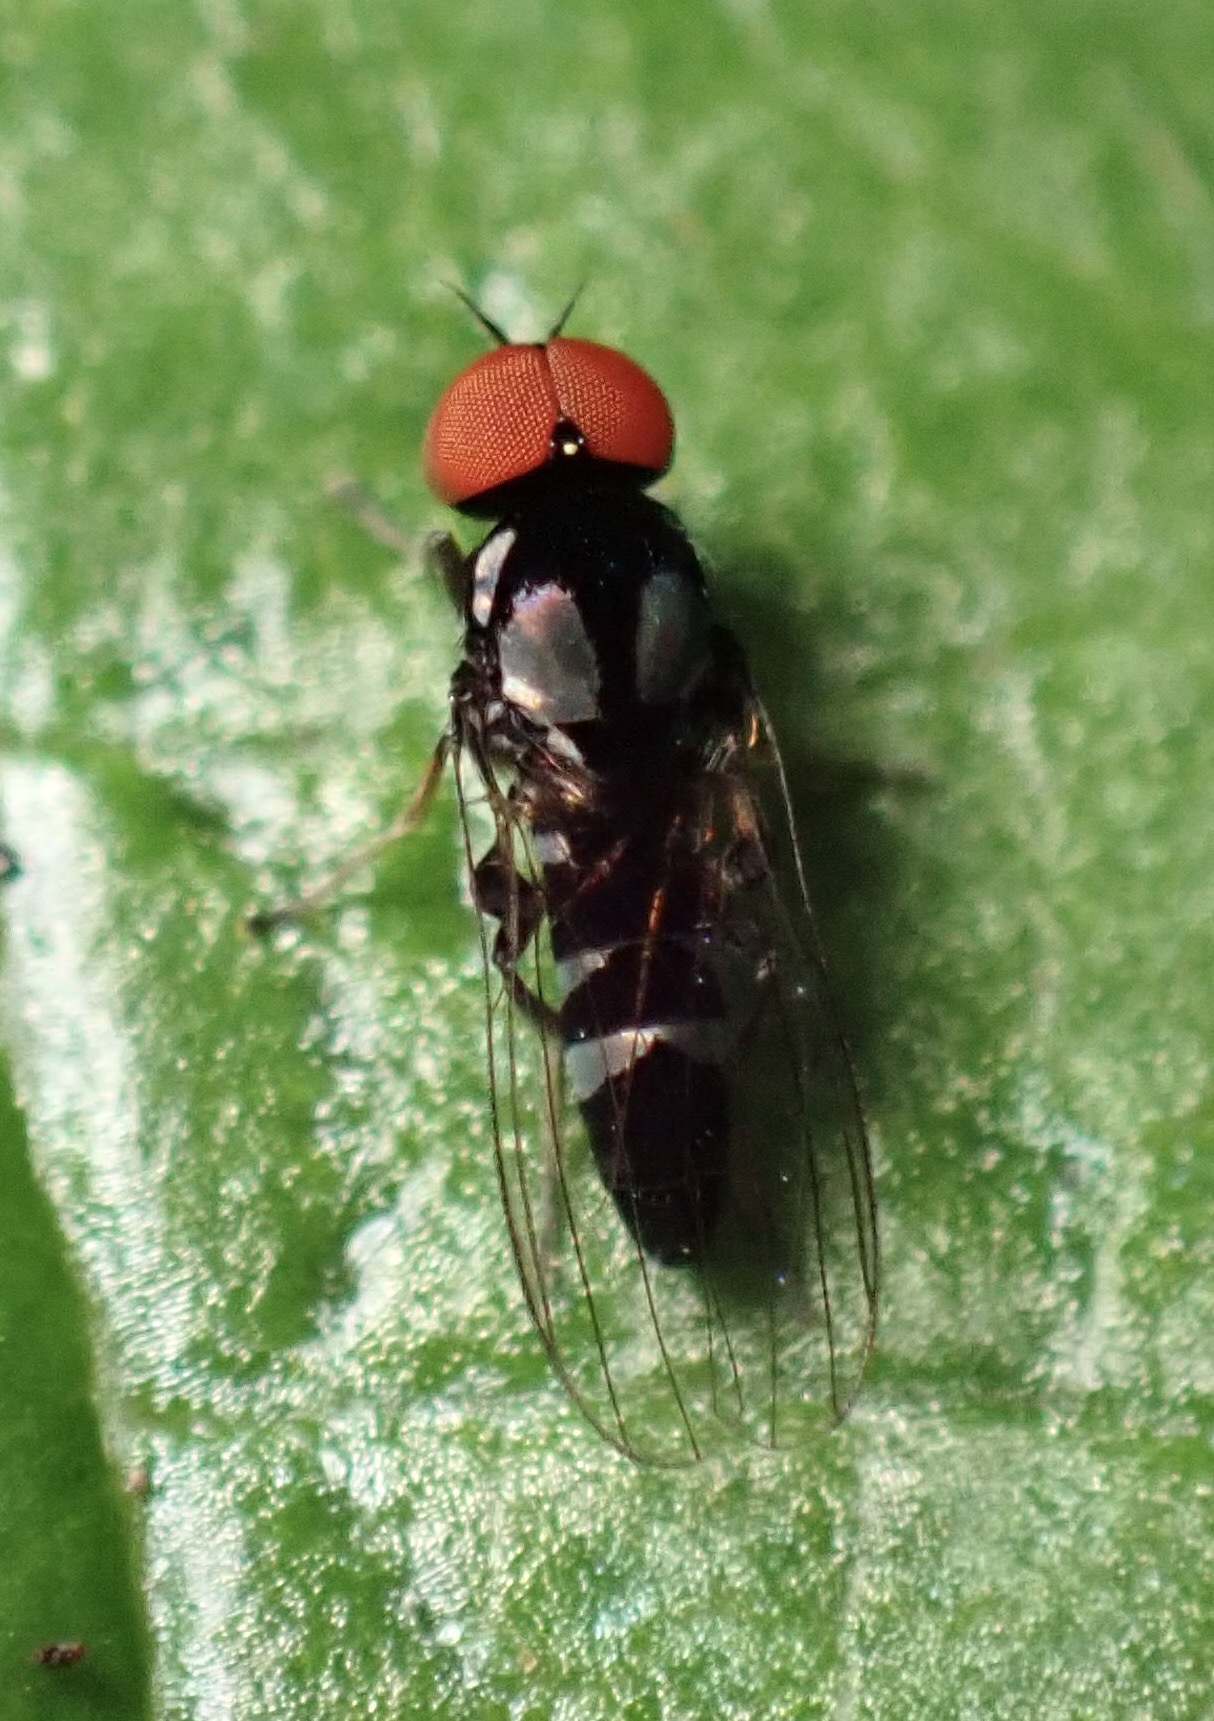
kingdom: Animalia
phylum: Arthropoda
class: Insecta
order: Diptera
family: Platypezidae
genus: Bertamyia
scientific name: Bertamyia notata
